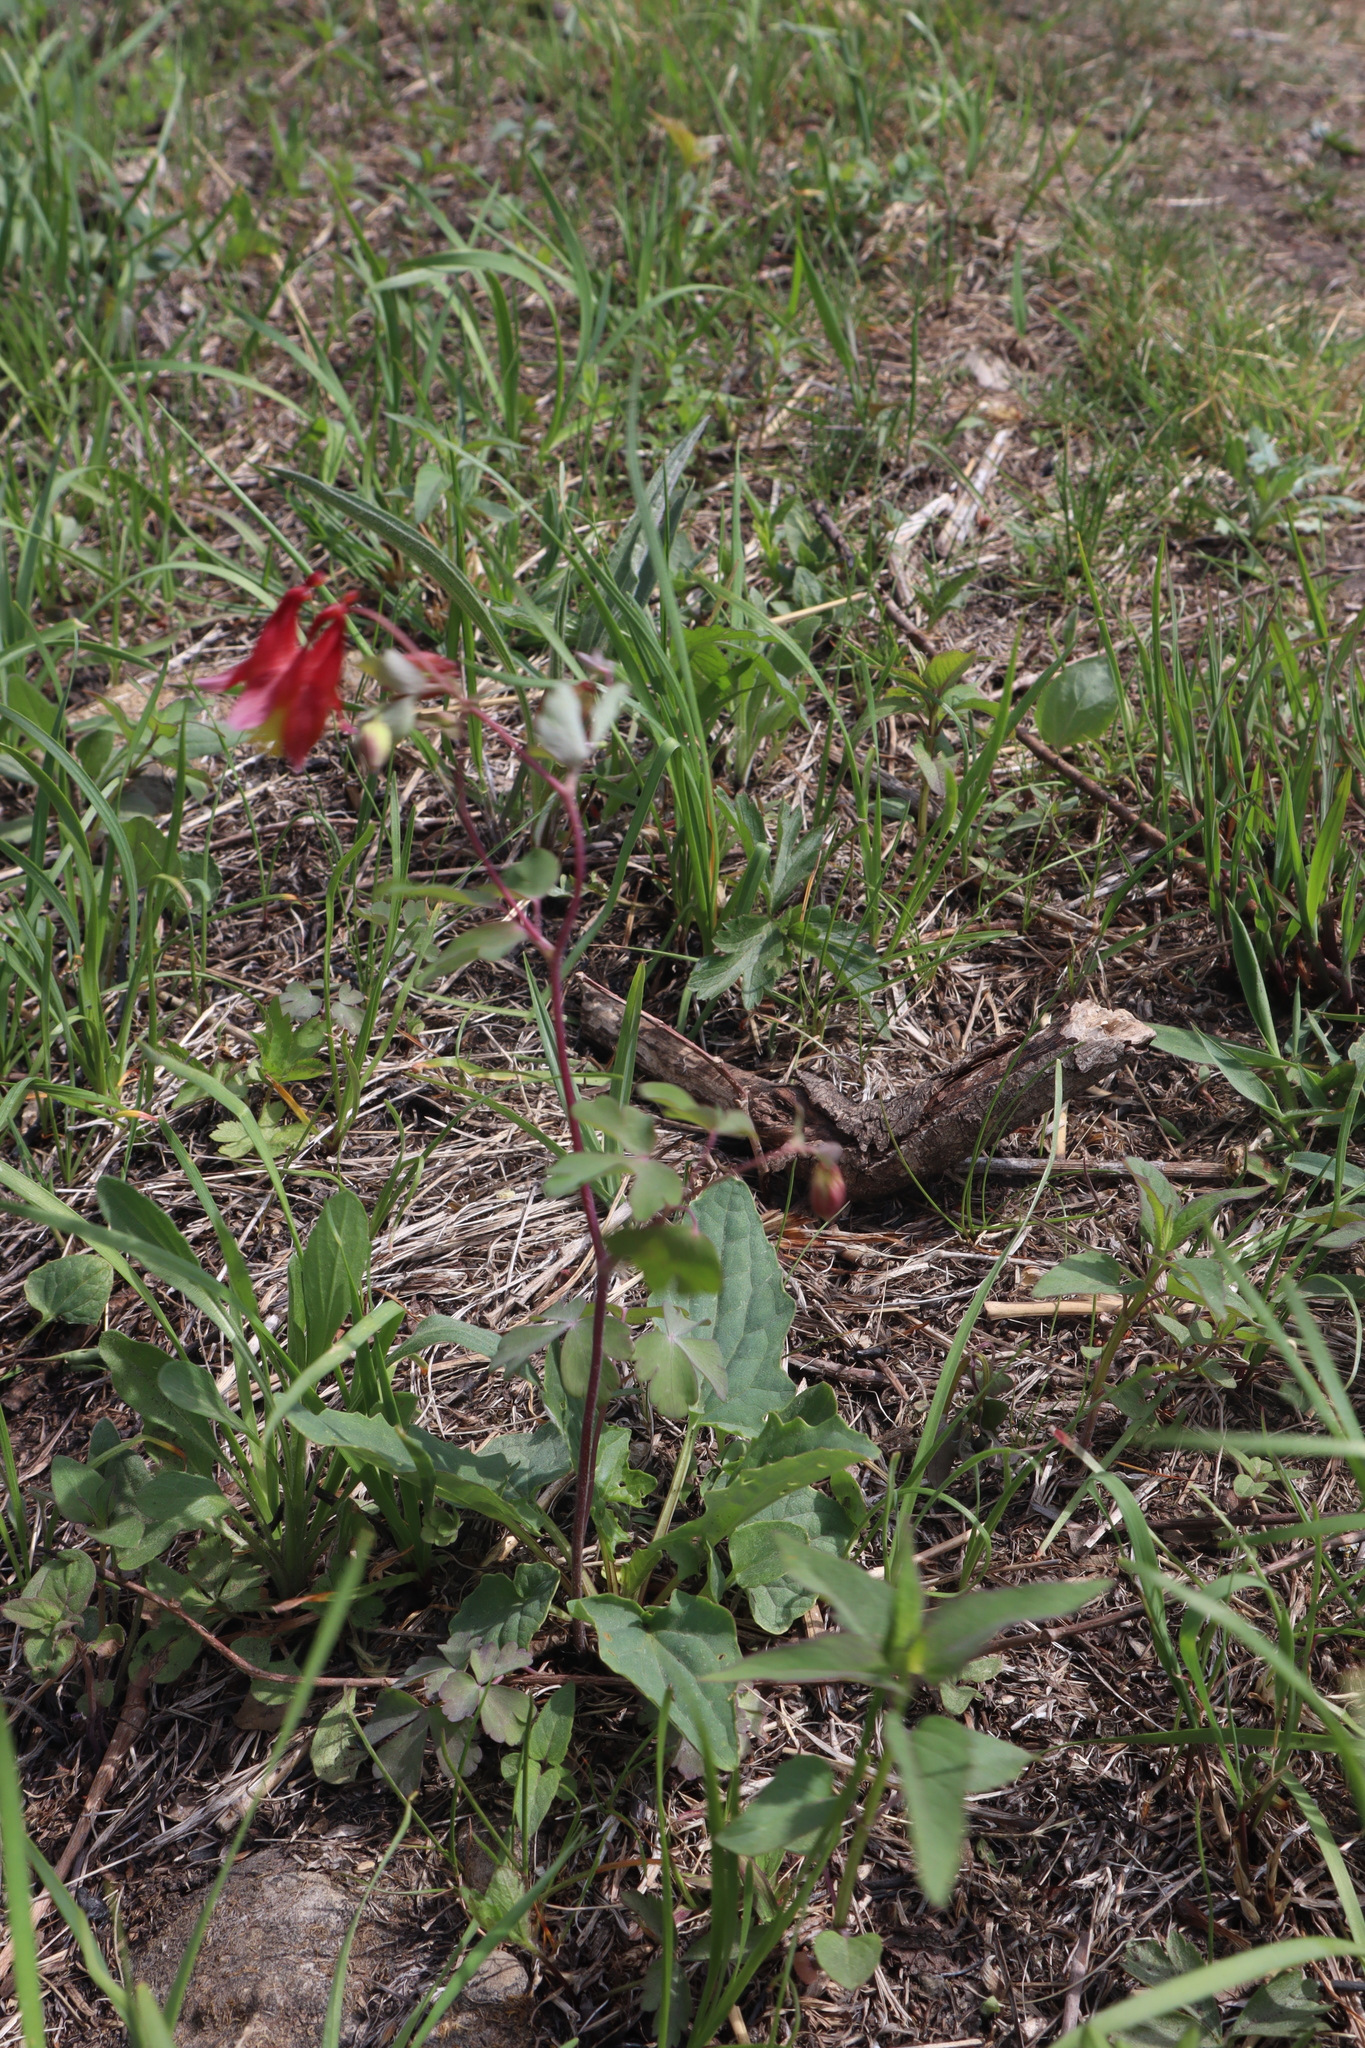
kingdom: Plantae
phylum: Tracheophyta
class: Magnoliopsida
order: Ranunculales
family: Ranunculaceae
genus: Aquilegia
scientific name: Aquilegia canadensis
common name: American columbine
